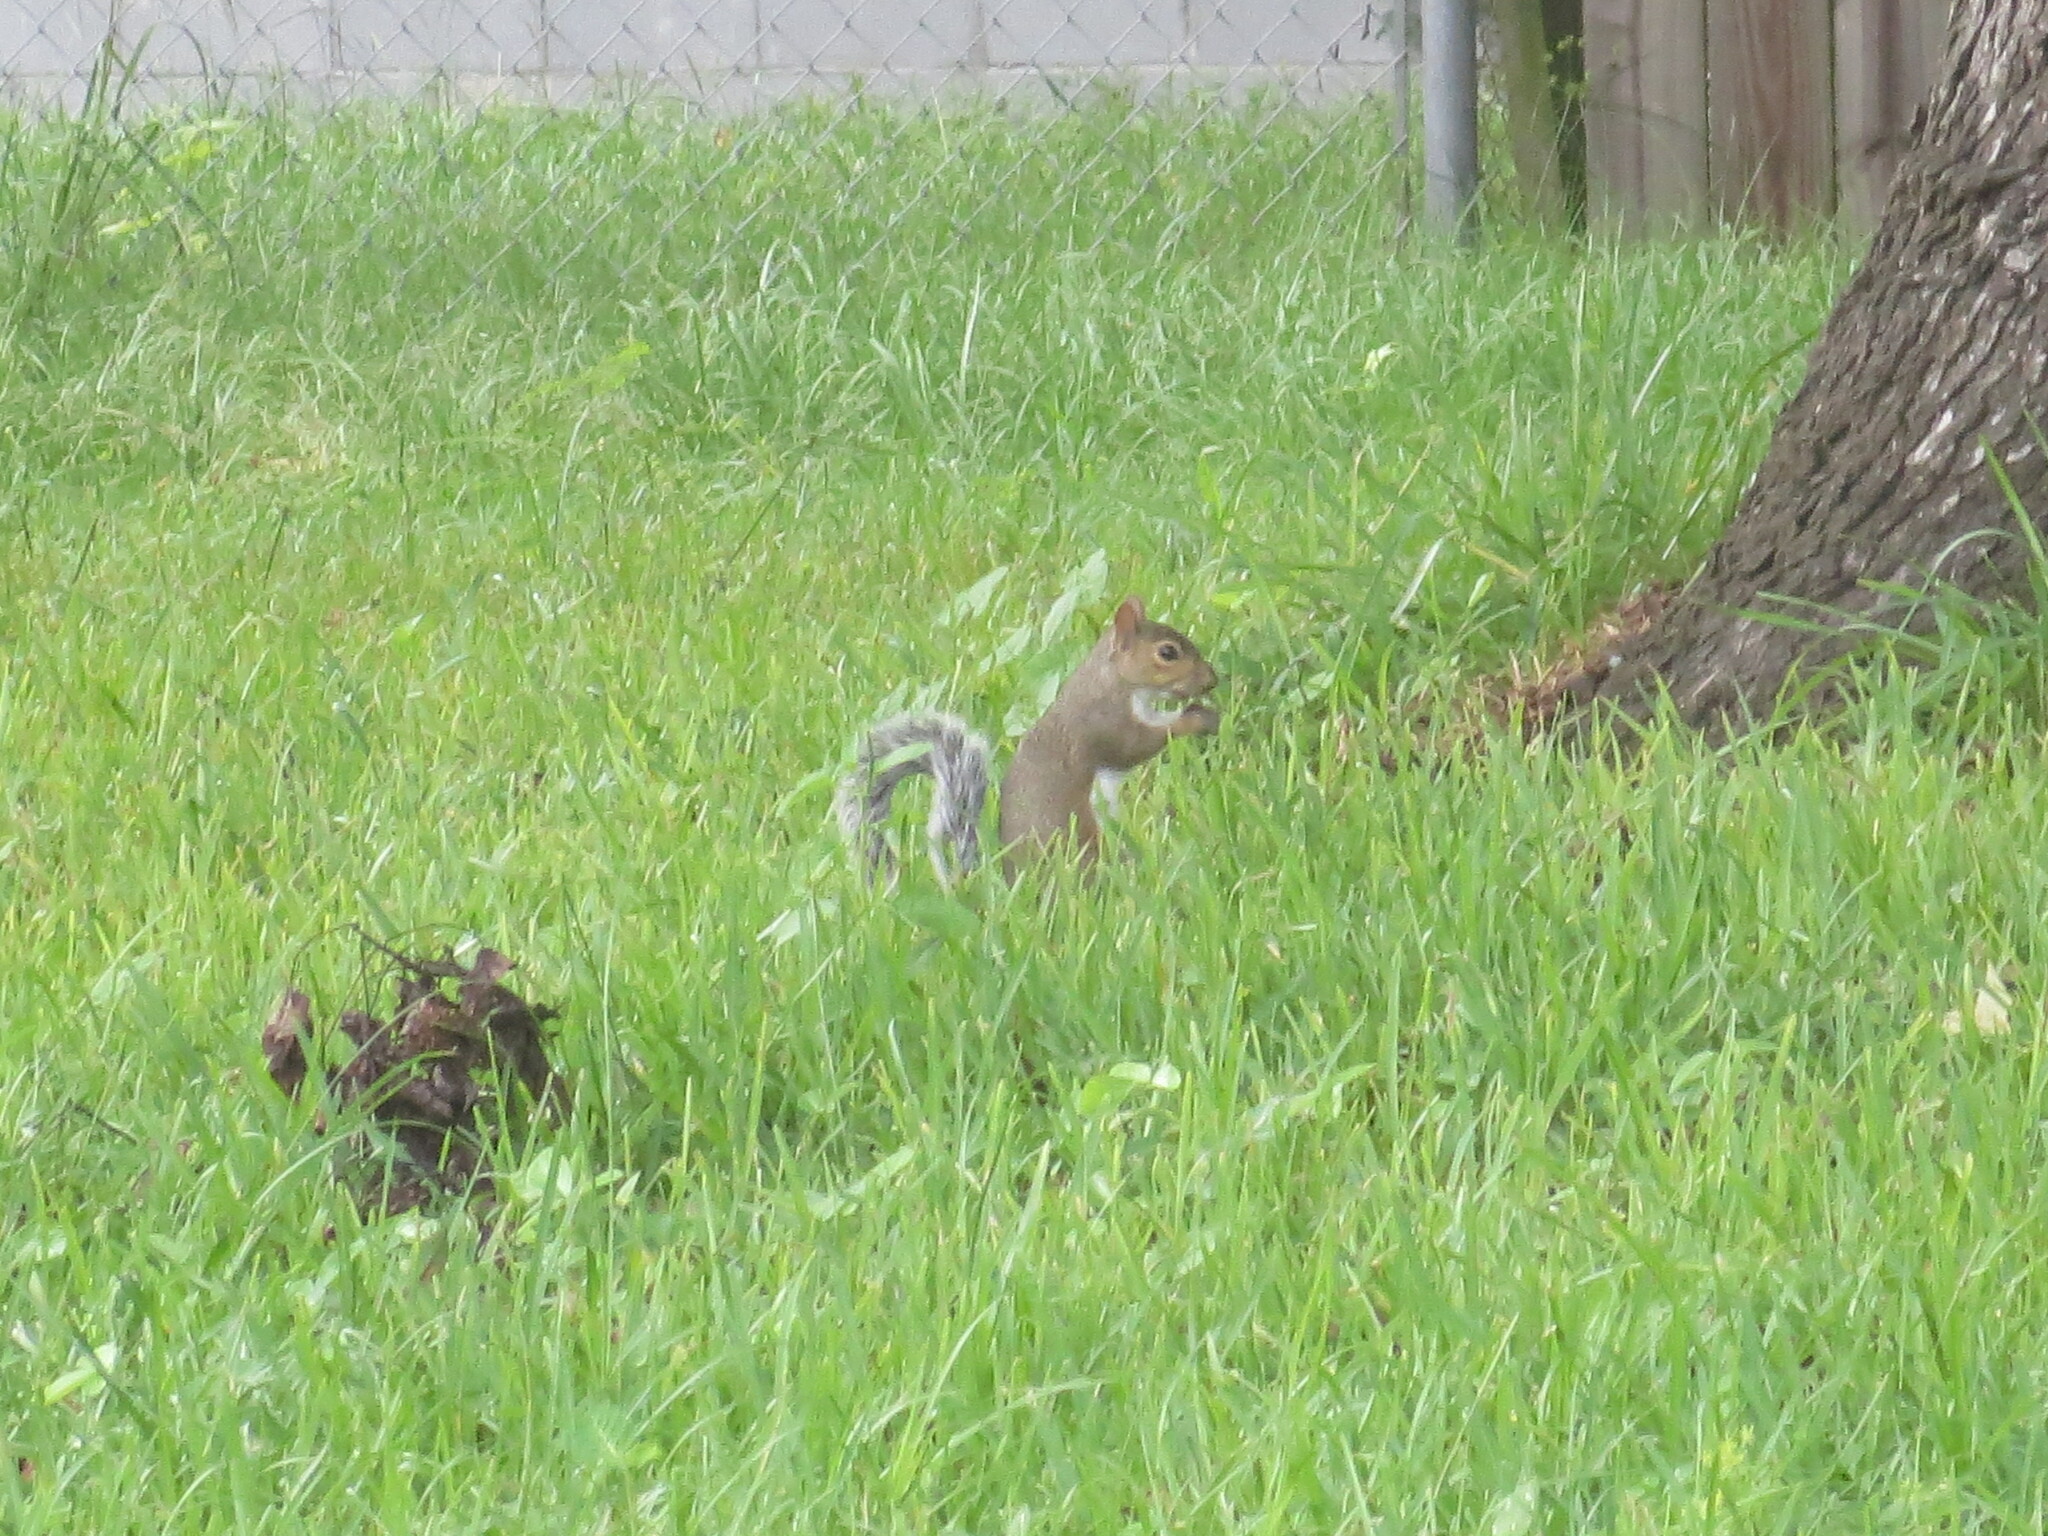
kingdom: Animalia
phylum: Chordata
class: Mammalia
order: Rodentia
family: Sciuridae
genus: Sciurus
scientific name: Sciurus carolinensis
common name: Eastern gray squirrel
